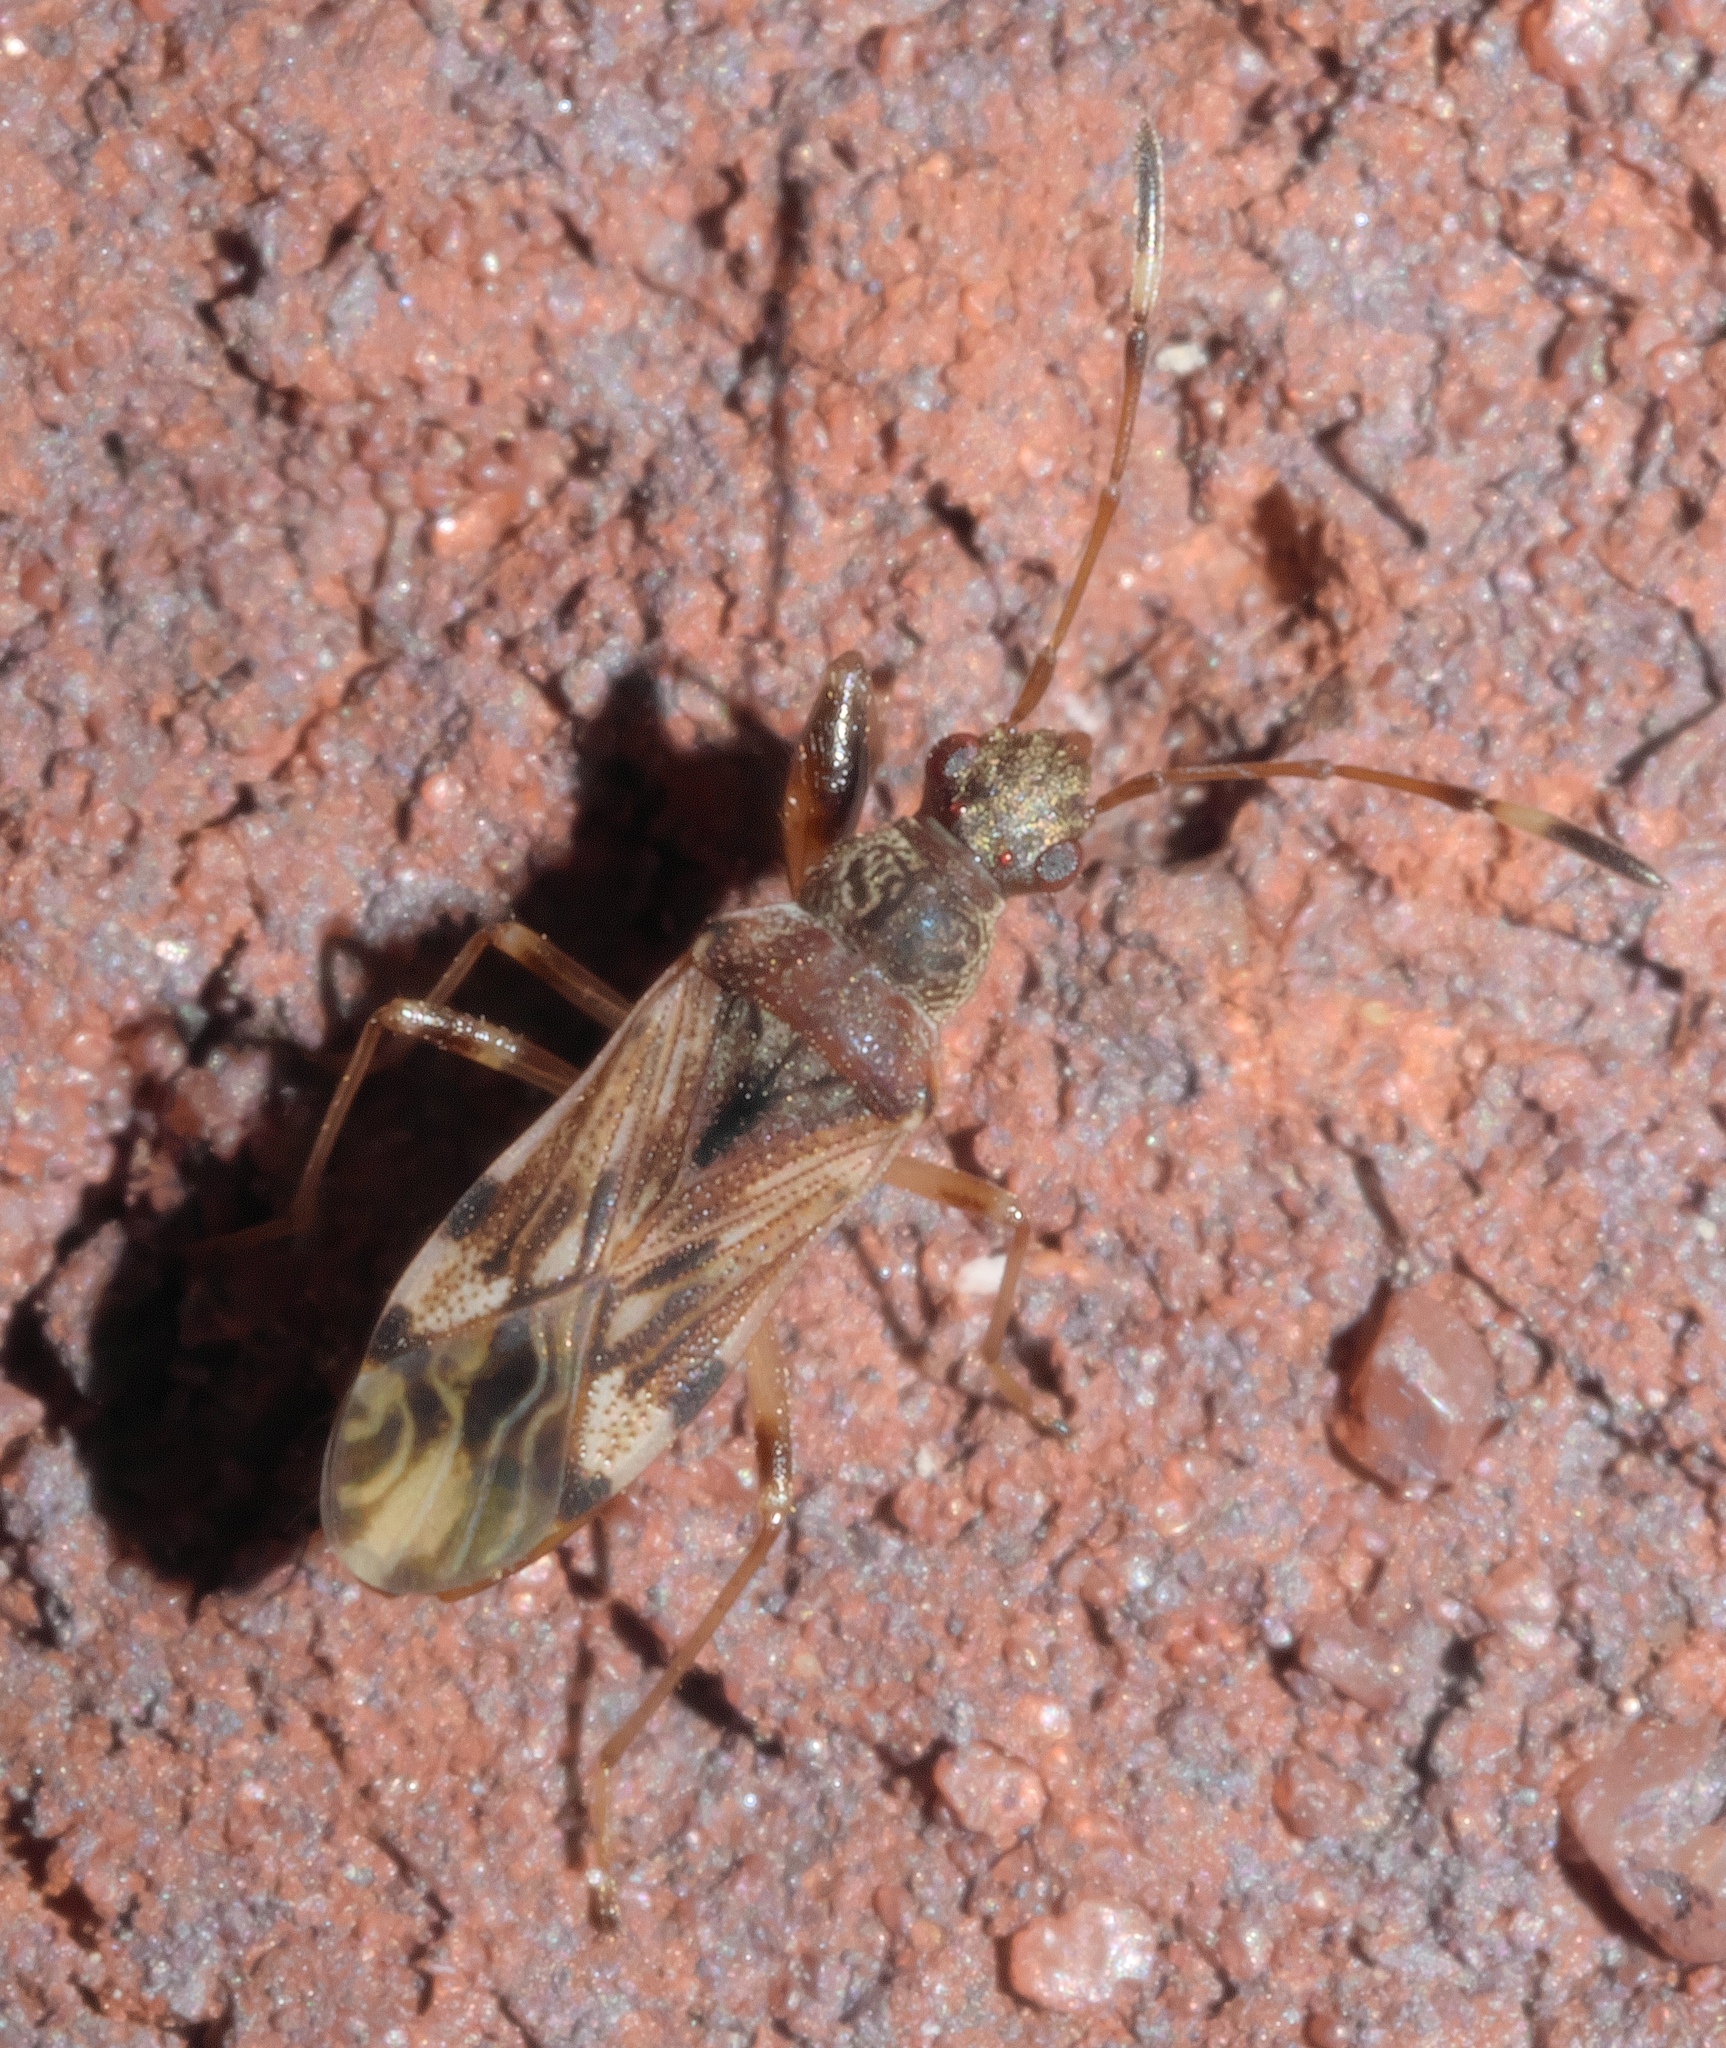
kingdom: Animalia
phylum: Arthropoda
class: Insecta
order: Hemiptera
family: Rhyparochromidae
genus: Neopamera
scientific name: Neopamera albocincta
